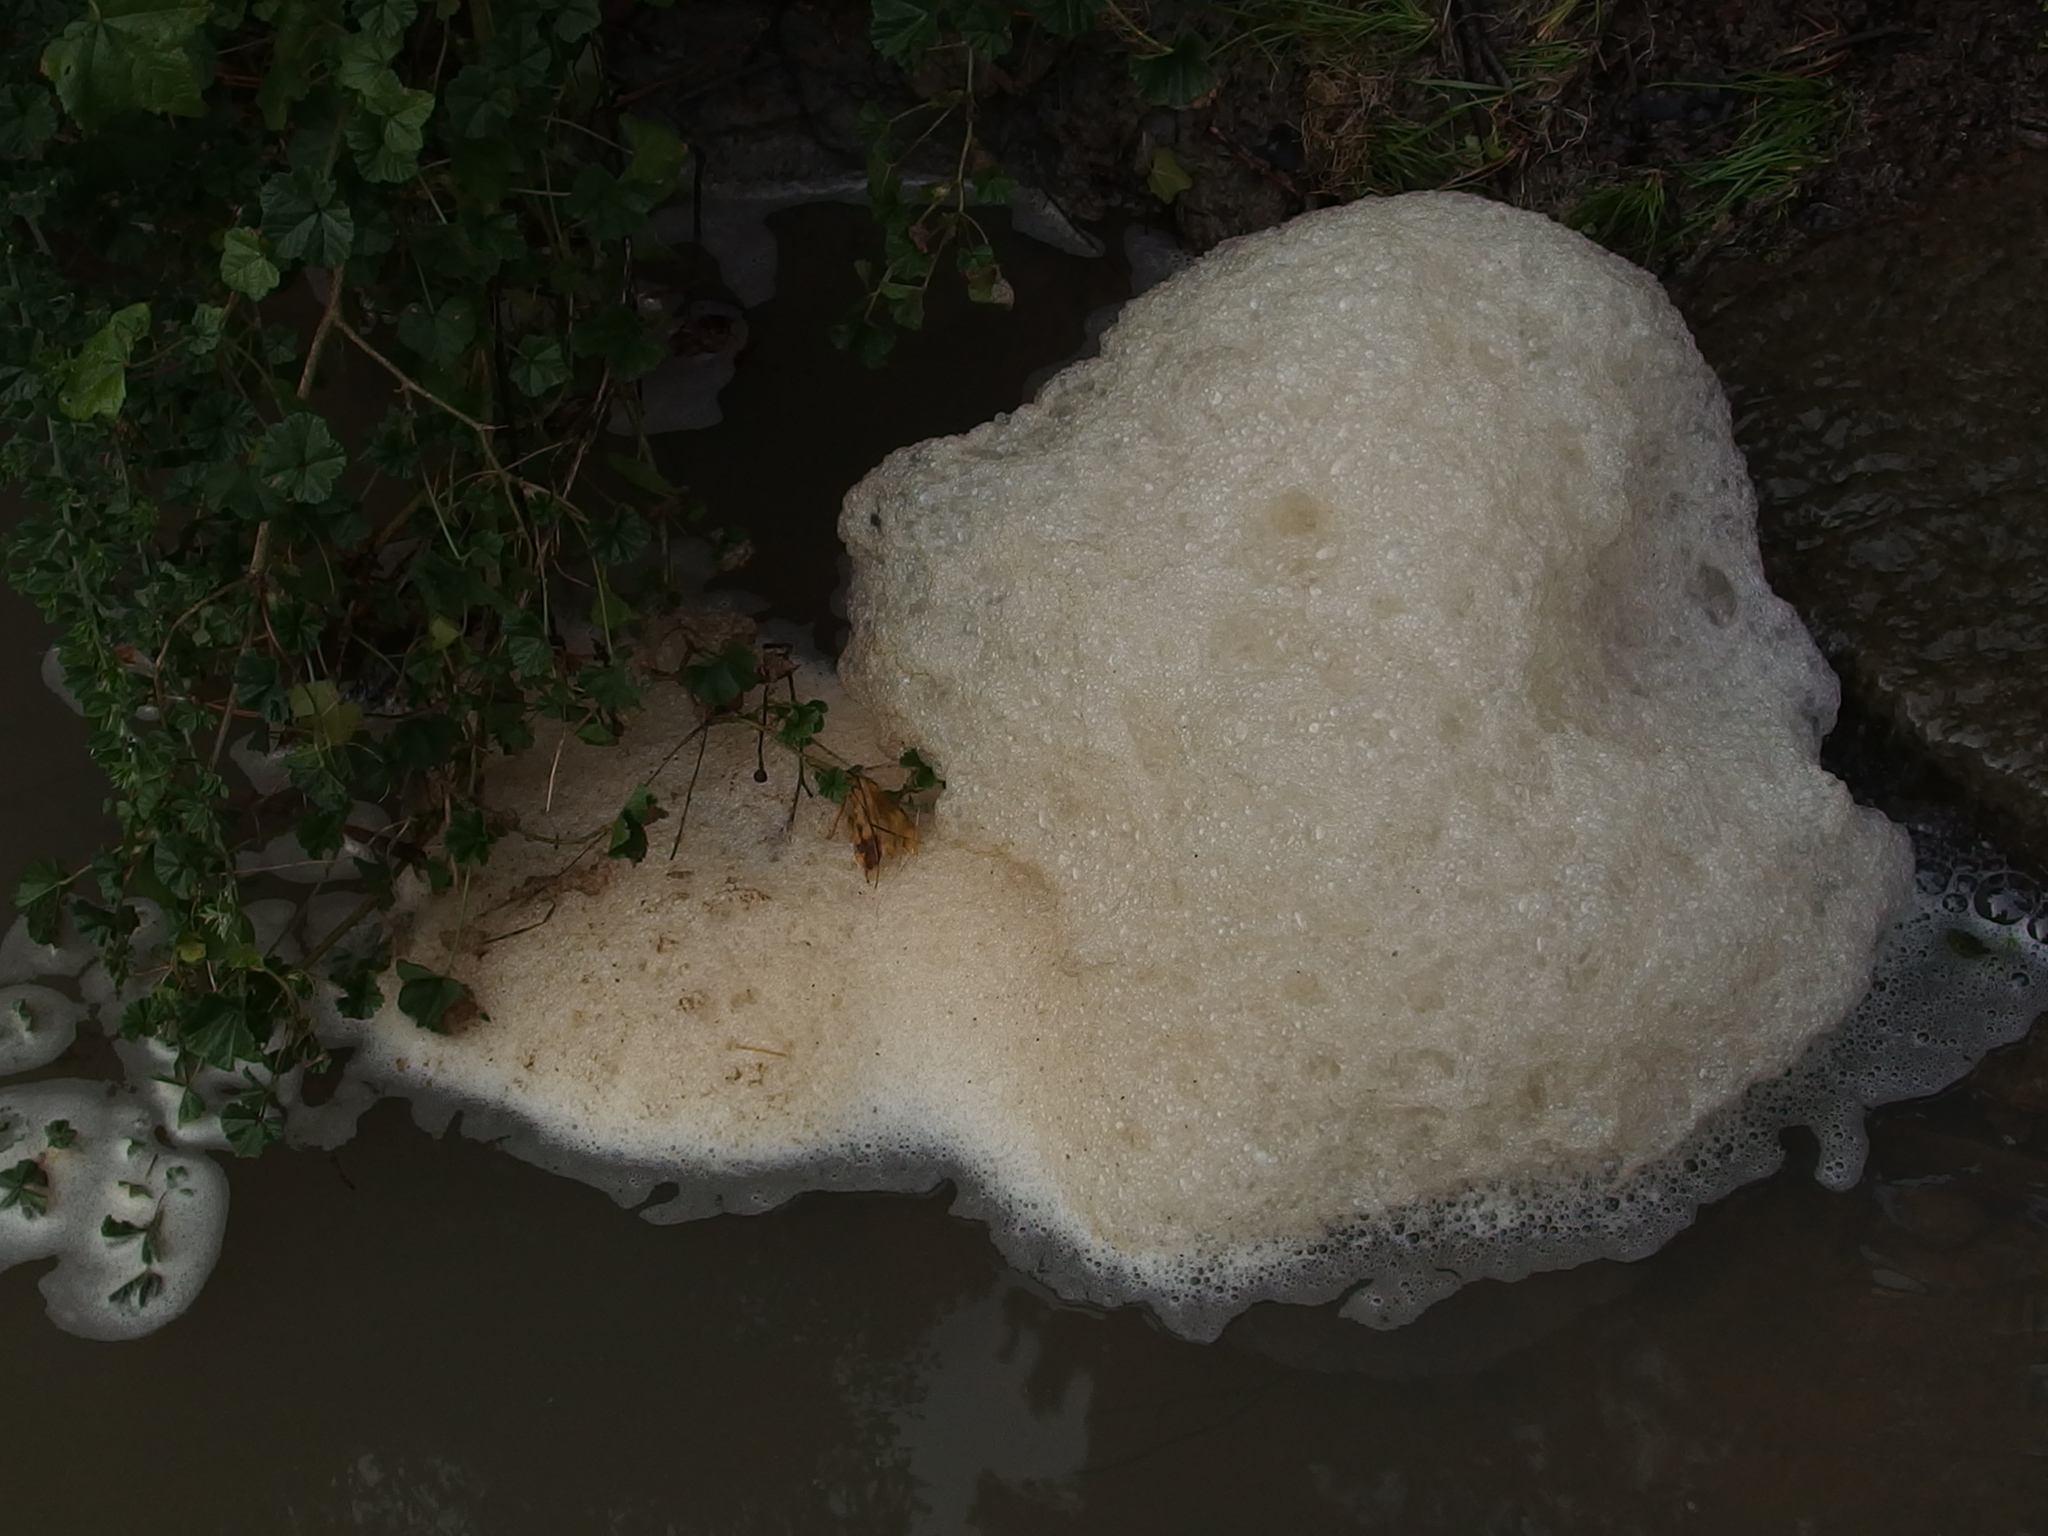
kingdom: Fungi
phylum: Ascomycota
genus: Flabellospora
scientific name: Flabellospora acuminata
